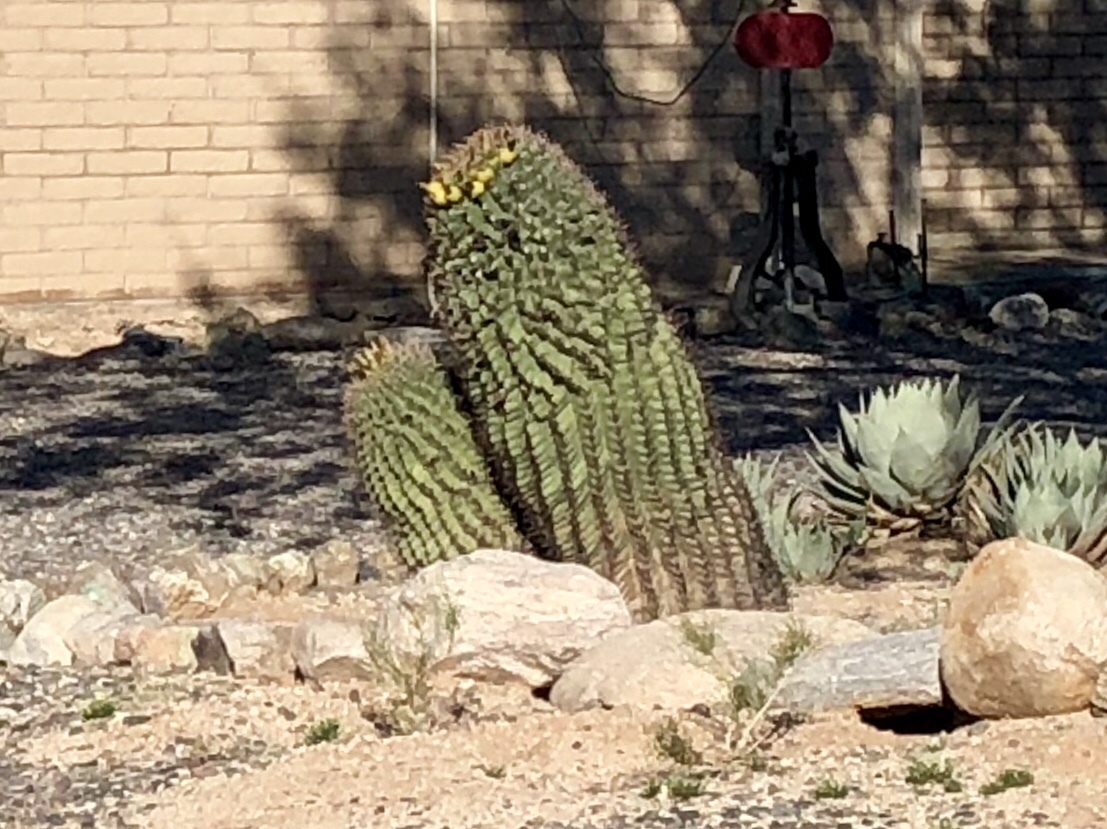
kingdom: Plantae
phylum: Tracheophyta
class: Magnoliopsida
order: Caryophyllales
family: Cactaceae
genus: Ferocactus
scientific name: Ferocactus wislizeni
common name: Candy barrel cactus
